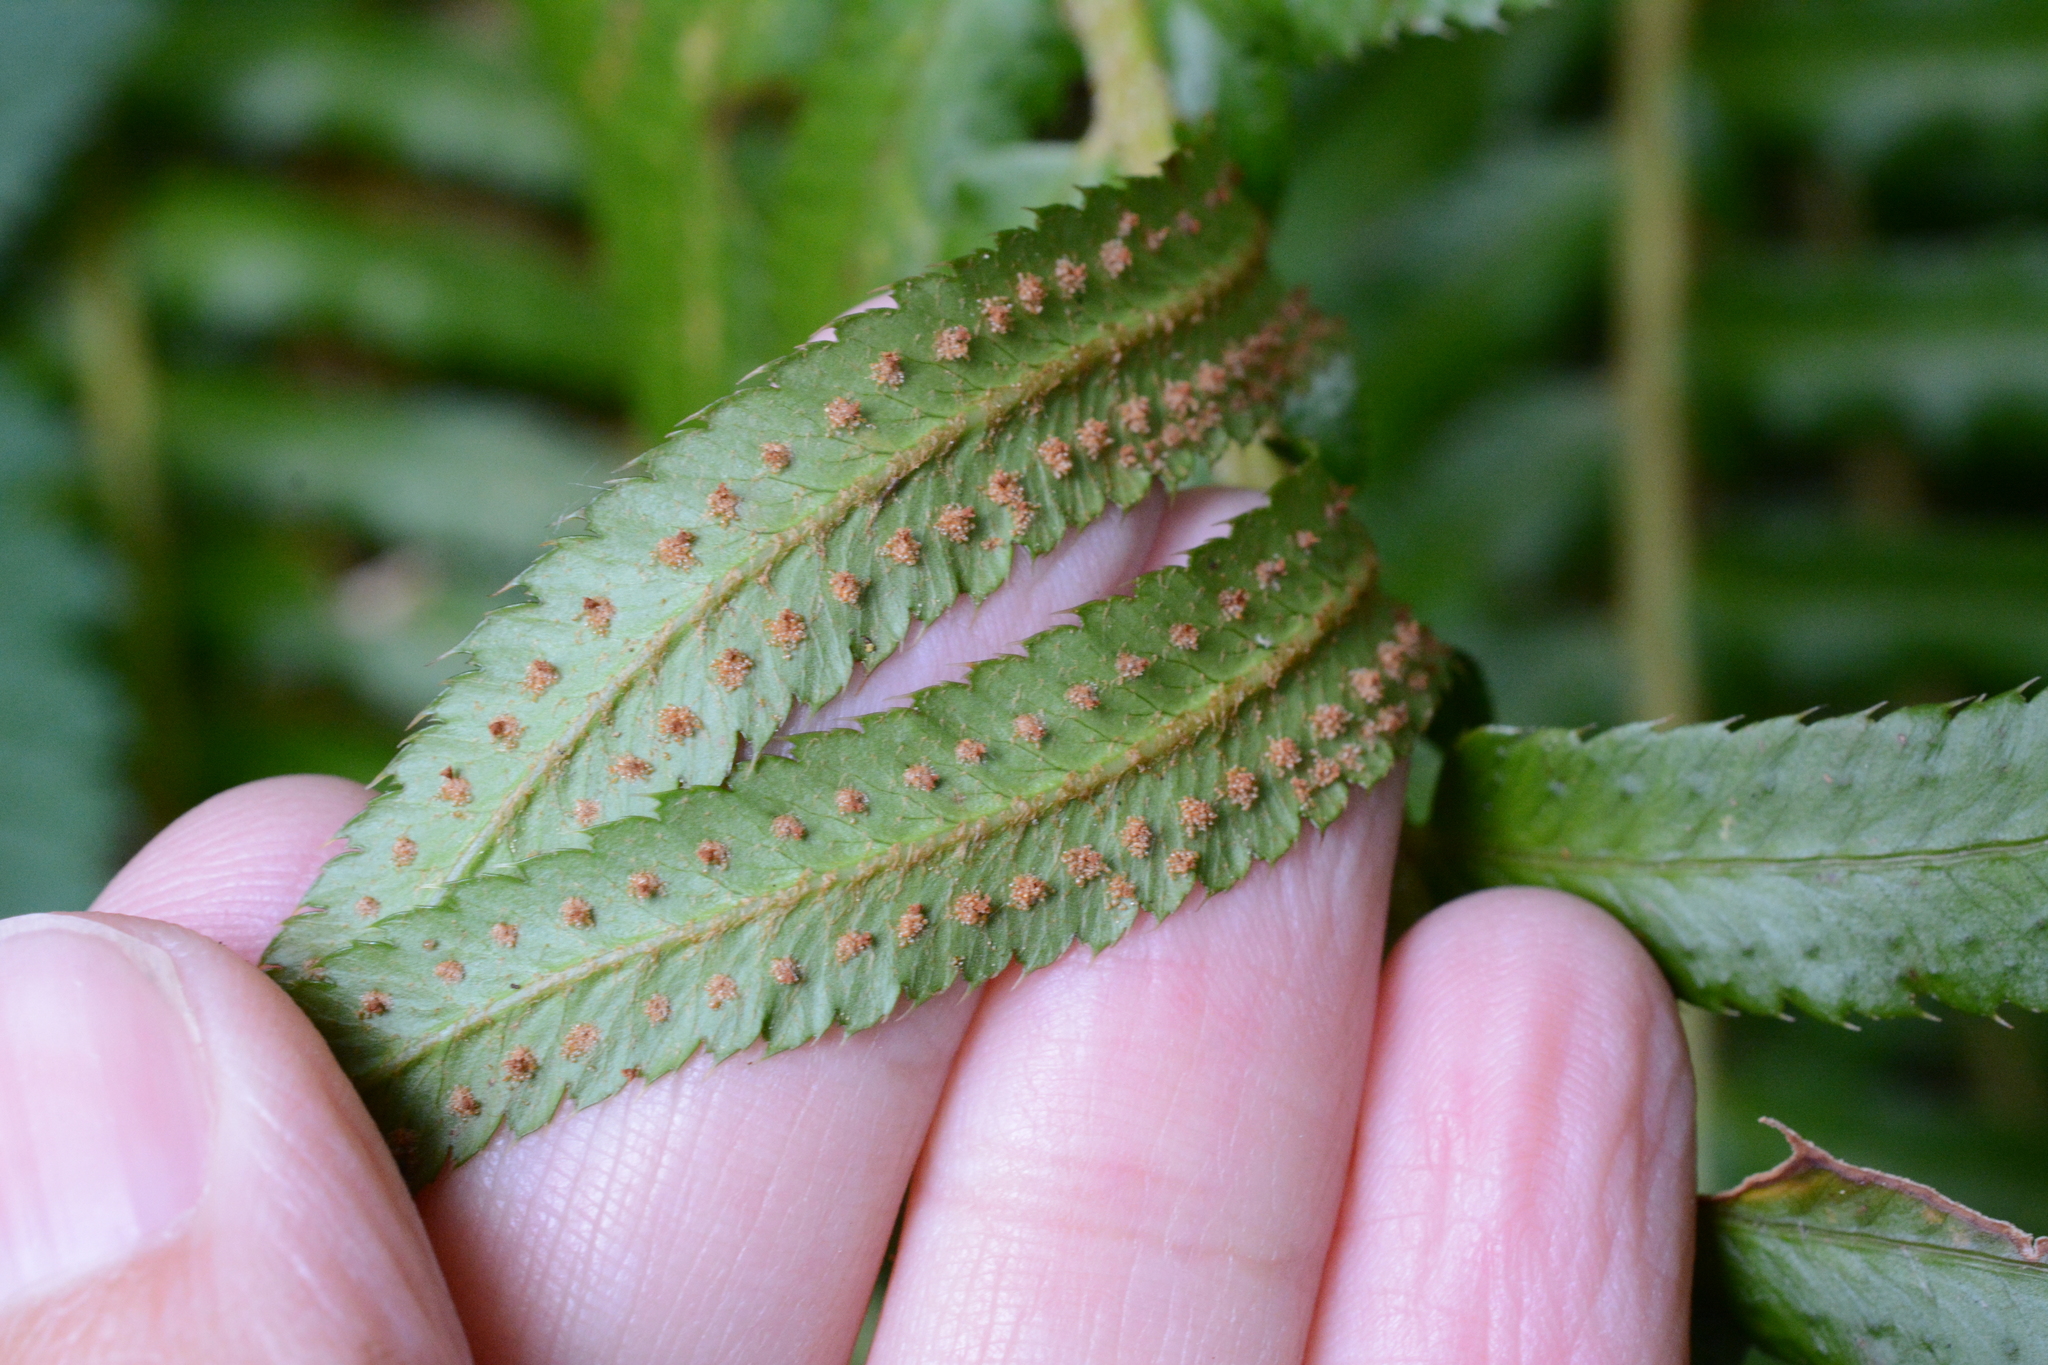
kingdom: Plantae
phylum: Tracheophyta
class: Polypodiopsida
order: Polypodiales
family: Dryopteridaceae
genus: Polystichum
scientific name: Polystichum munitum
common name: Western sword-fern
